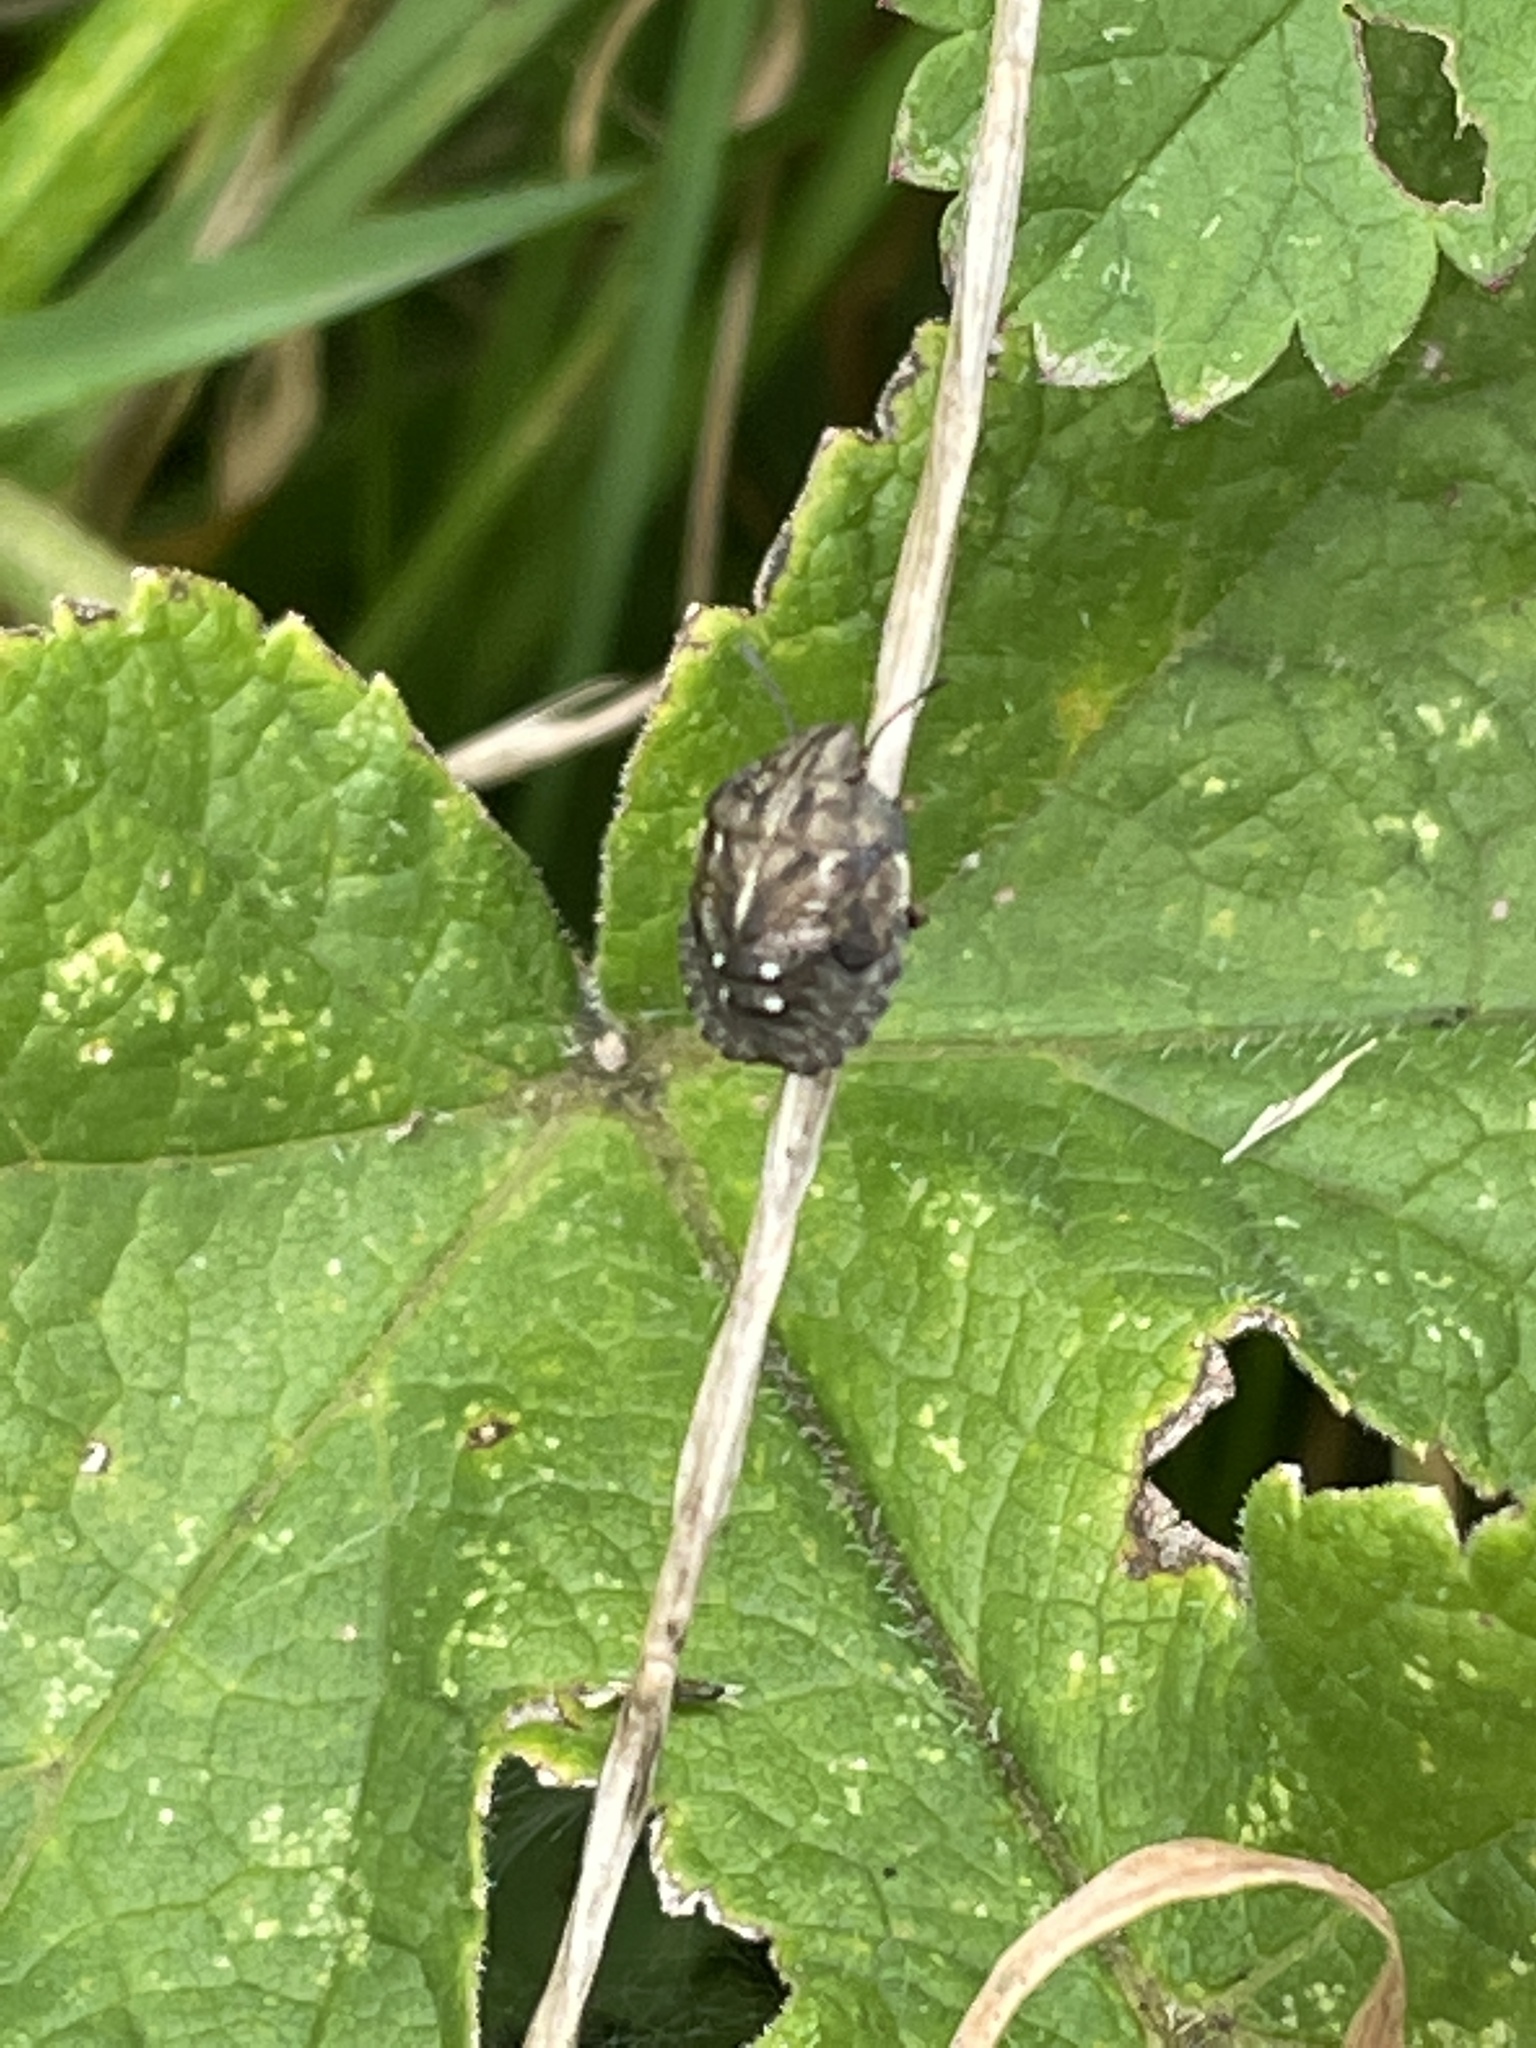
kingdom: Animalia
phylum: Arthropoda
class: Insecta
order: Hemiptera
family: Scutelleridae
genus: Eurygaster
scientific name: Eurygaster testudinaria
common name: Tortoise bug
